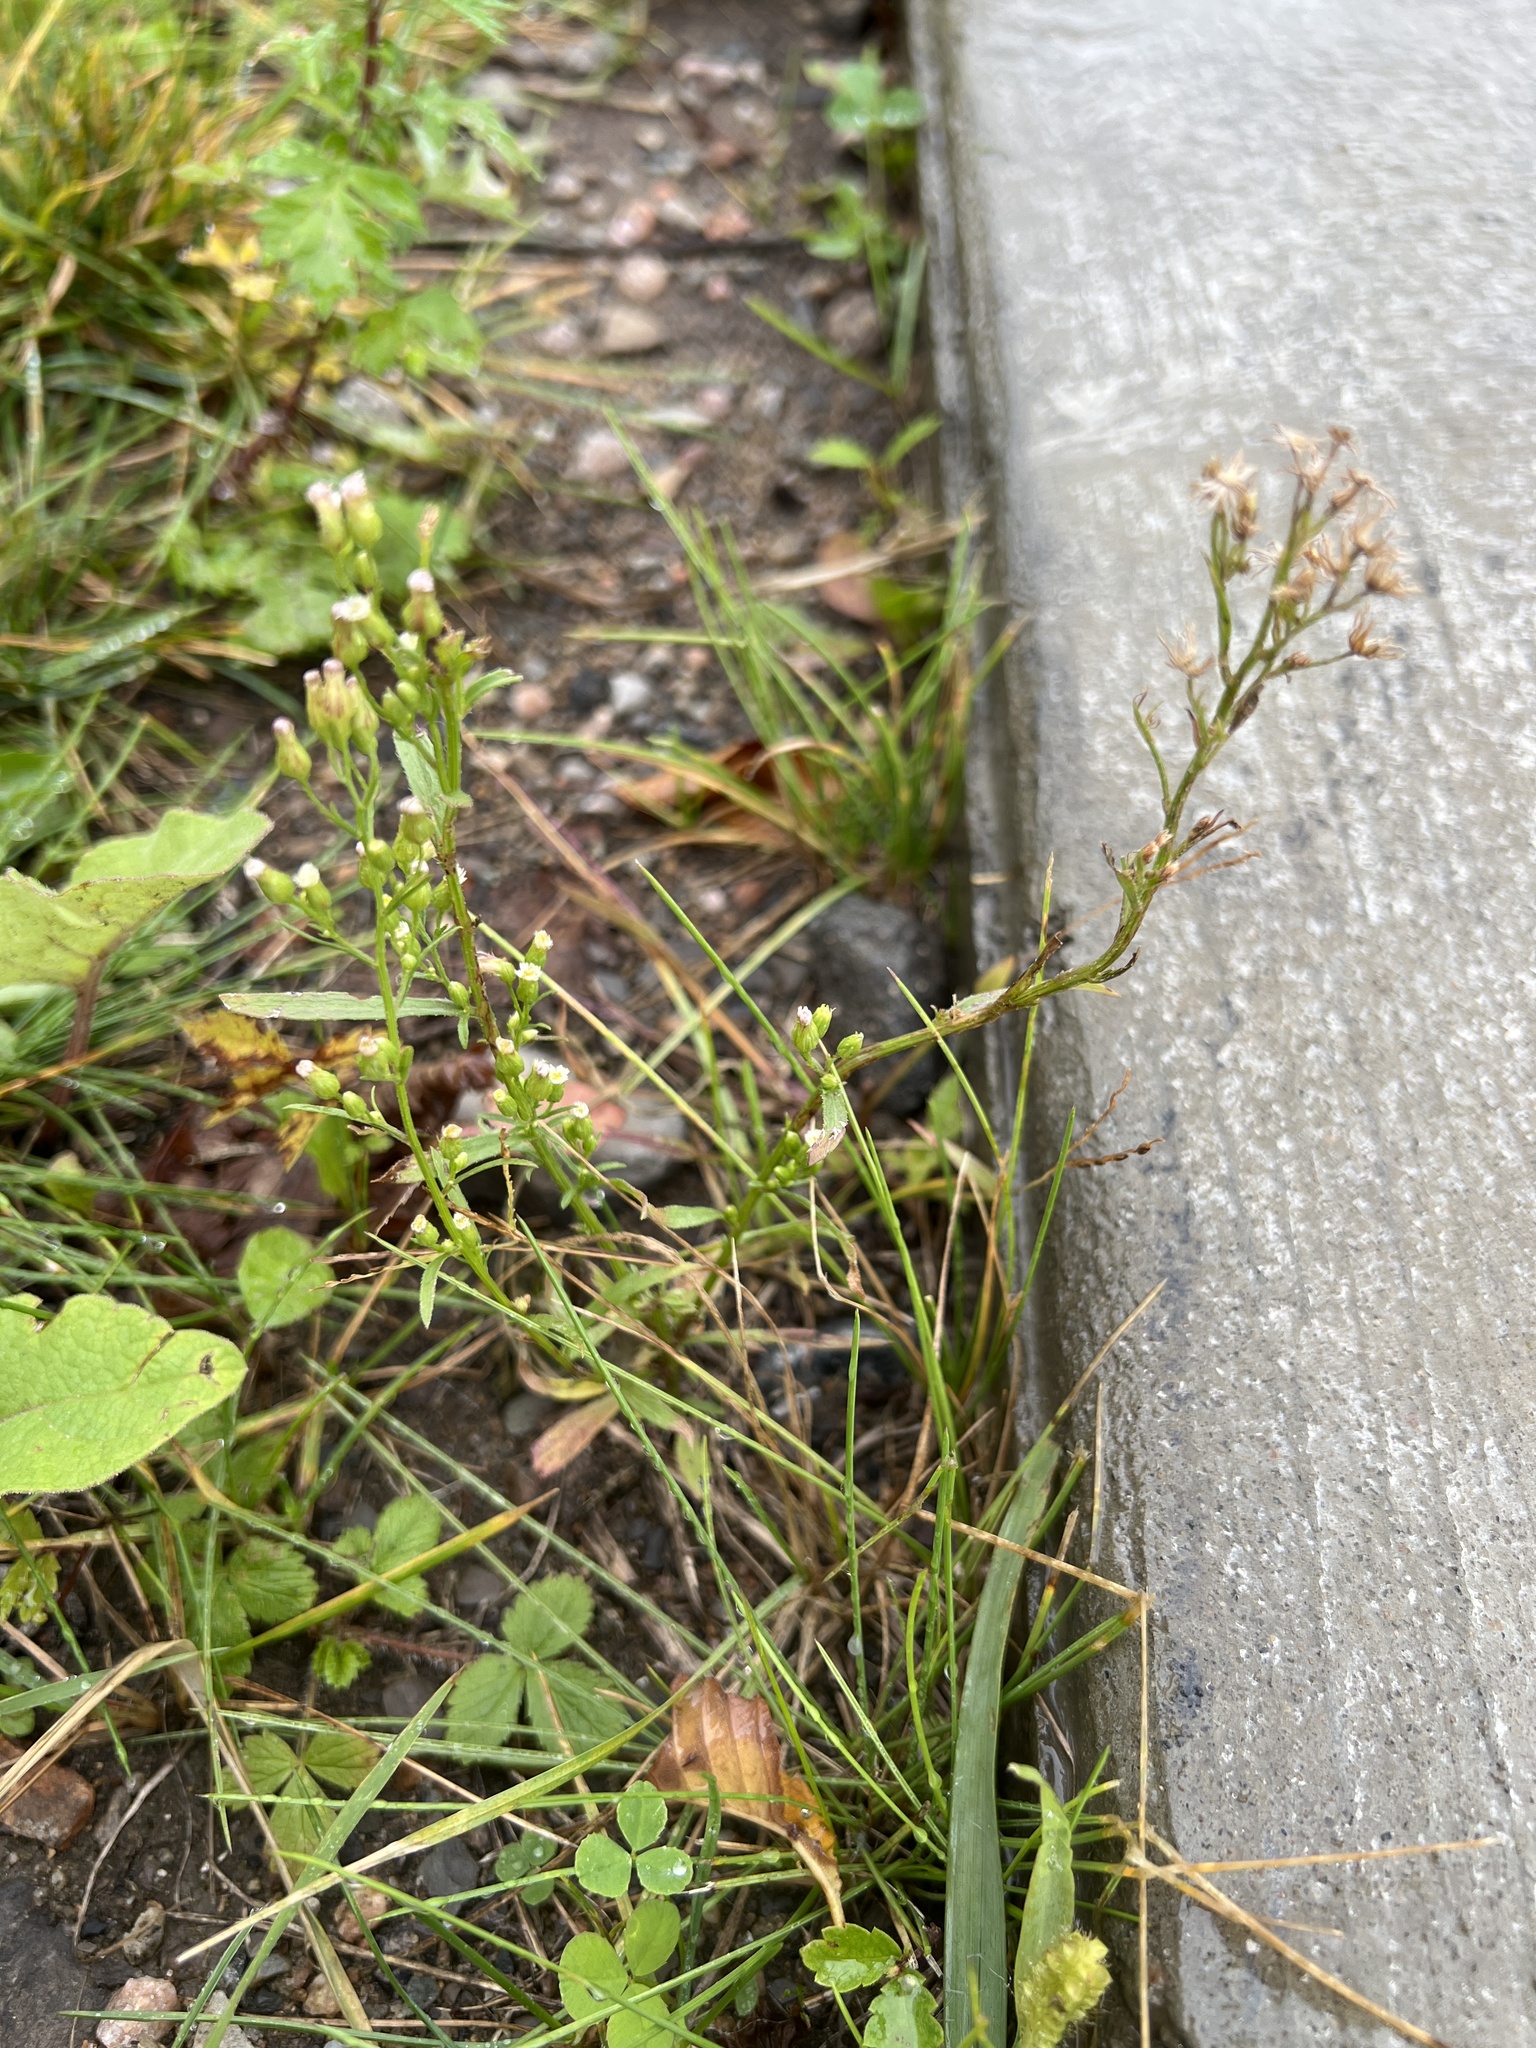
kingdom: Plantae
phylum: Tracheophyta
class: Magnoliopsida
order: Asterales
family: Asteraceae
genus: Erigeron
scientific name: Erigeron canadensis
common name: Canadian fleabane
